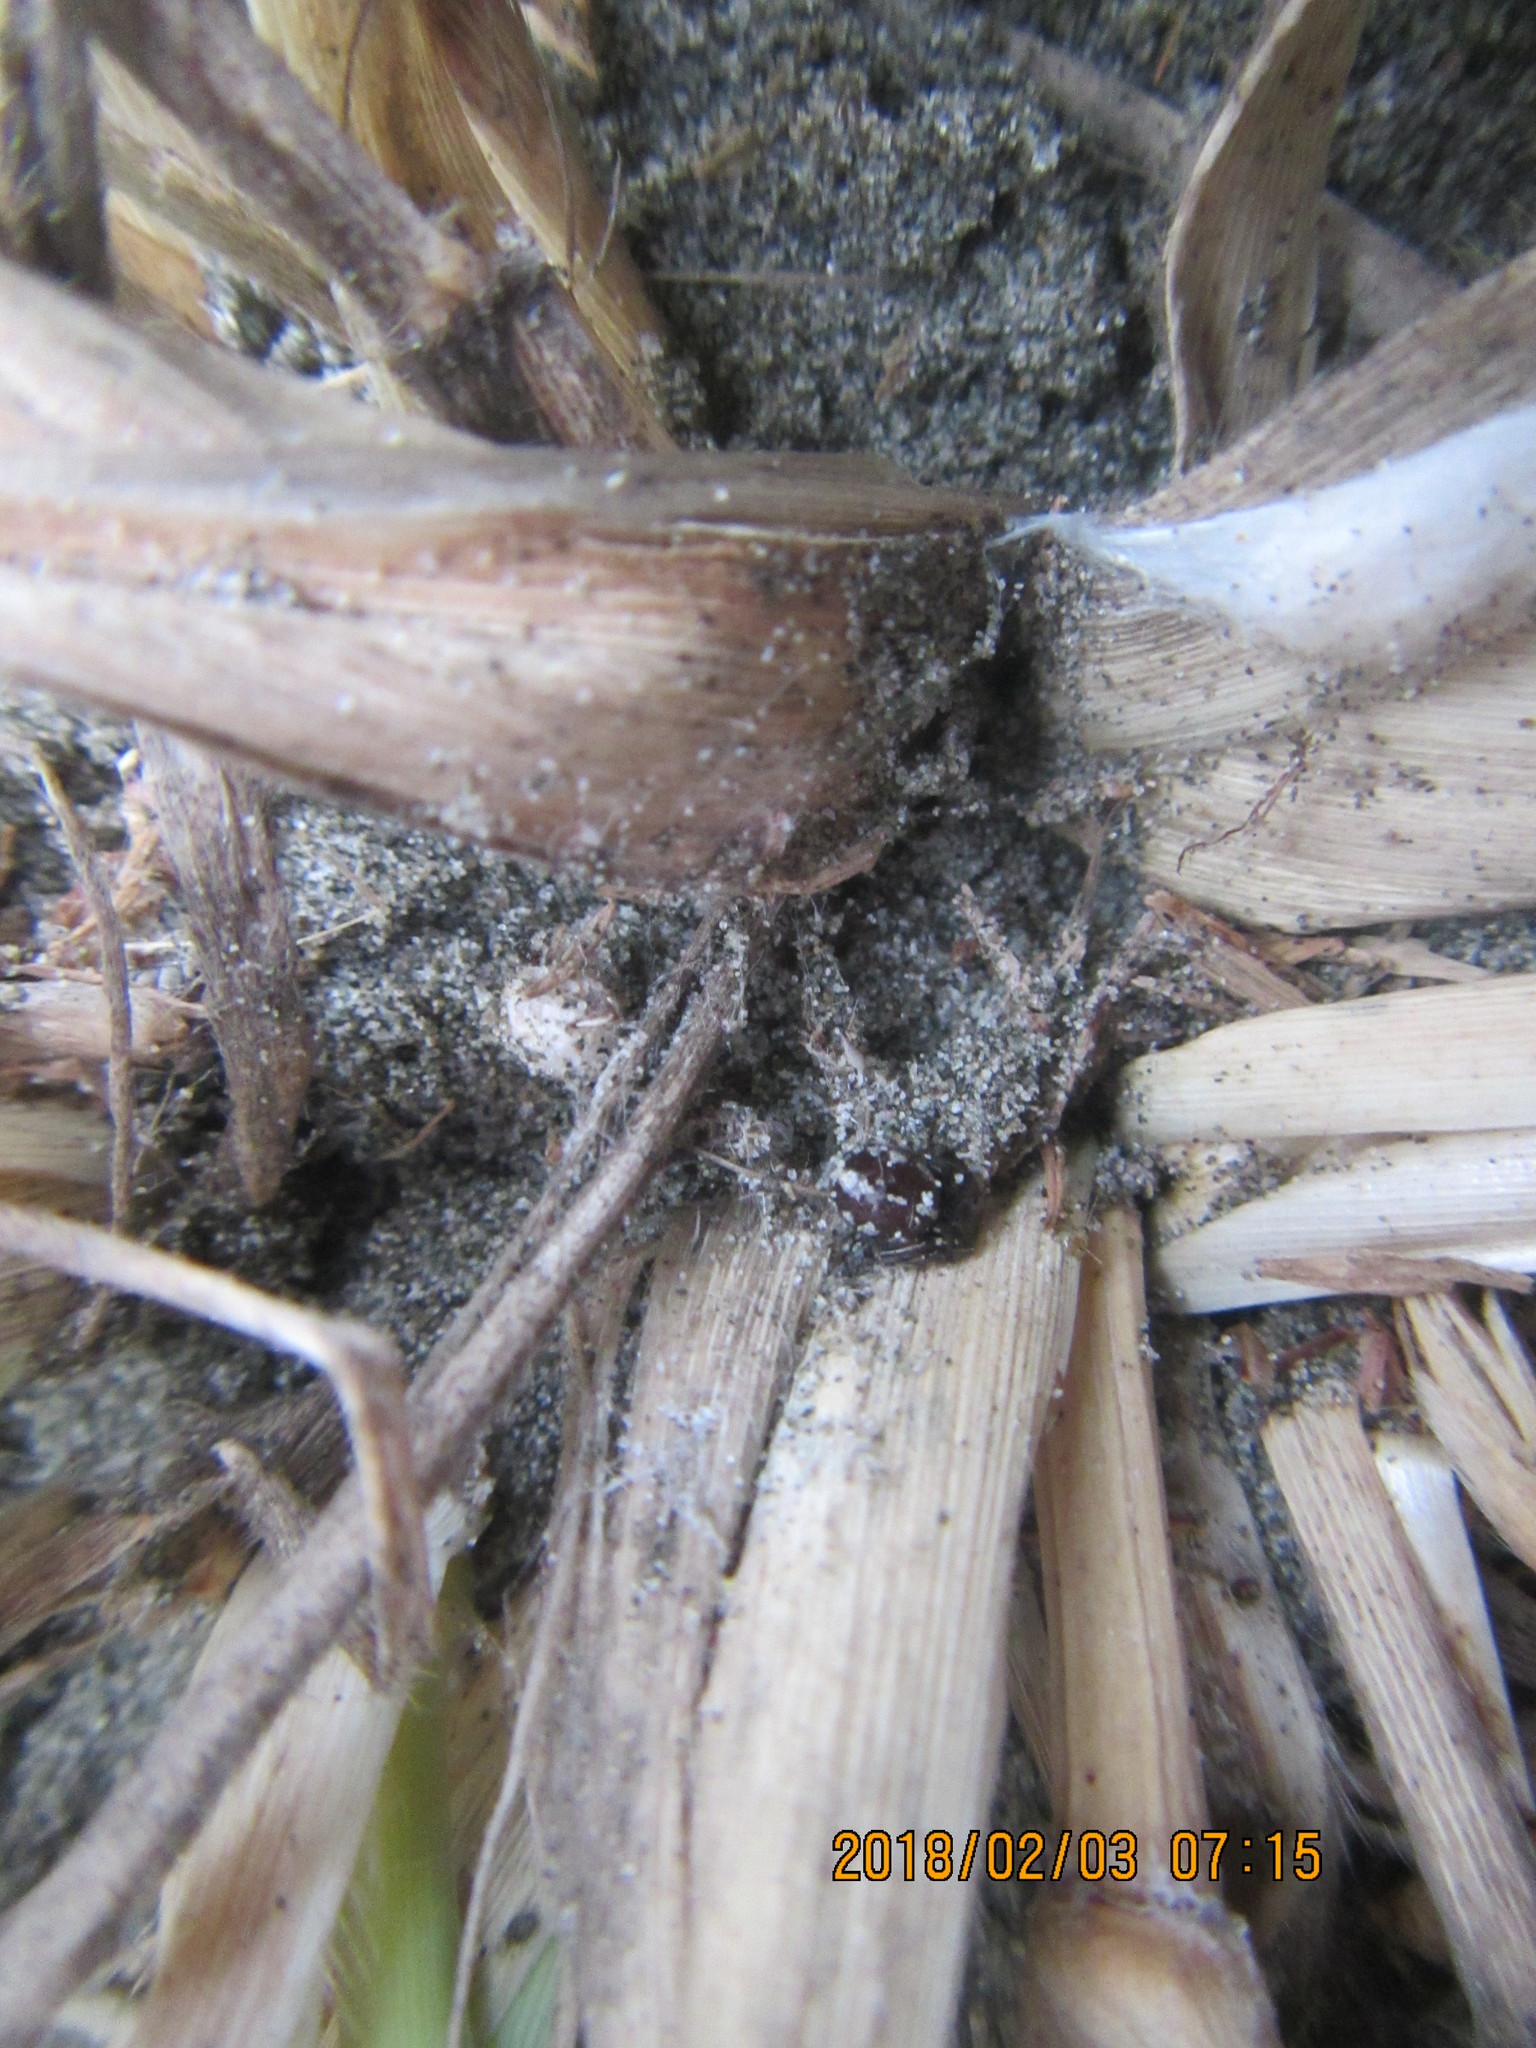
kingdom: Animalia
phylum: Arthropoda
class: Arachnida
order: Araneae
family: Theridiidae
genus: Steatoda
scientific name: Steatoda lepida
